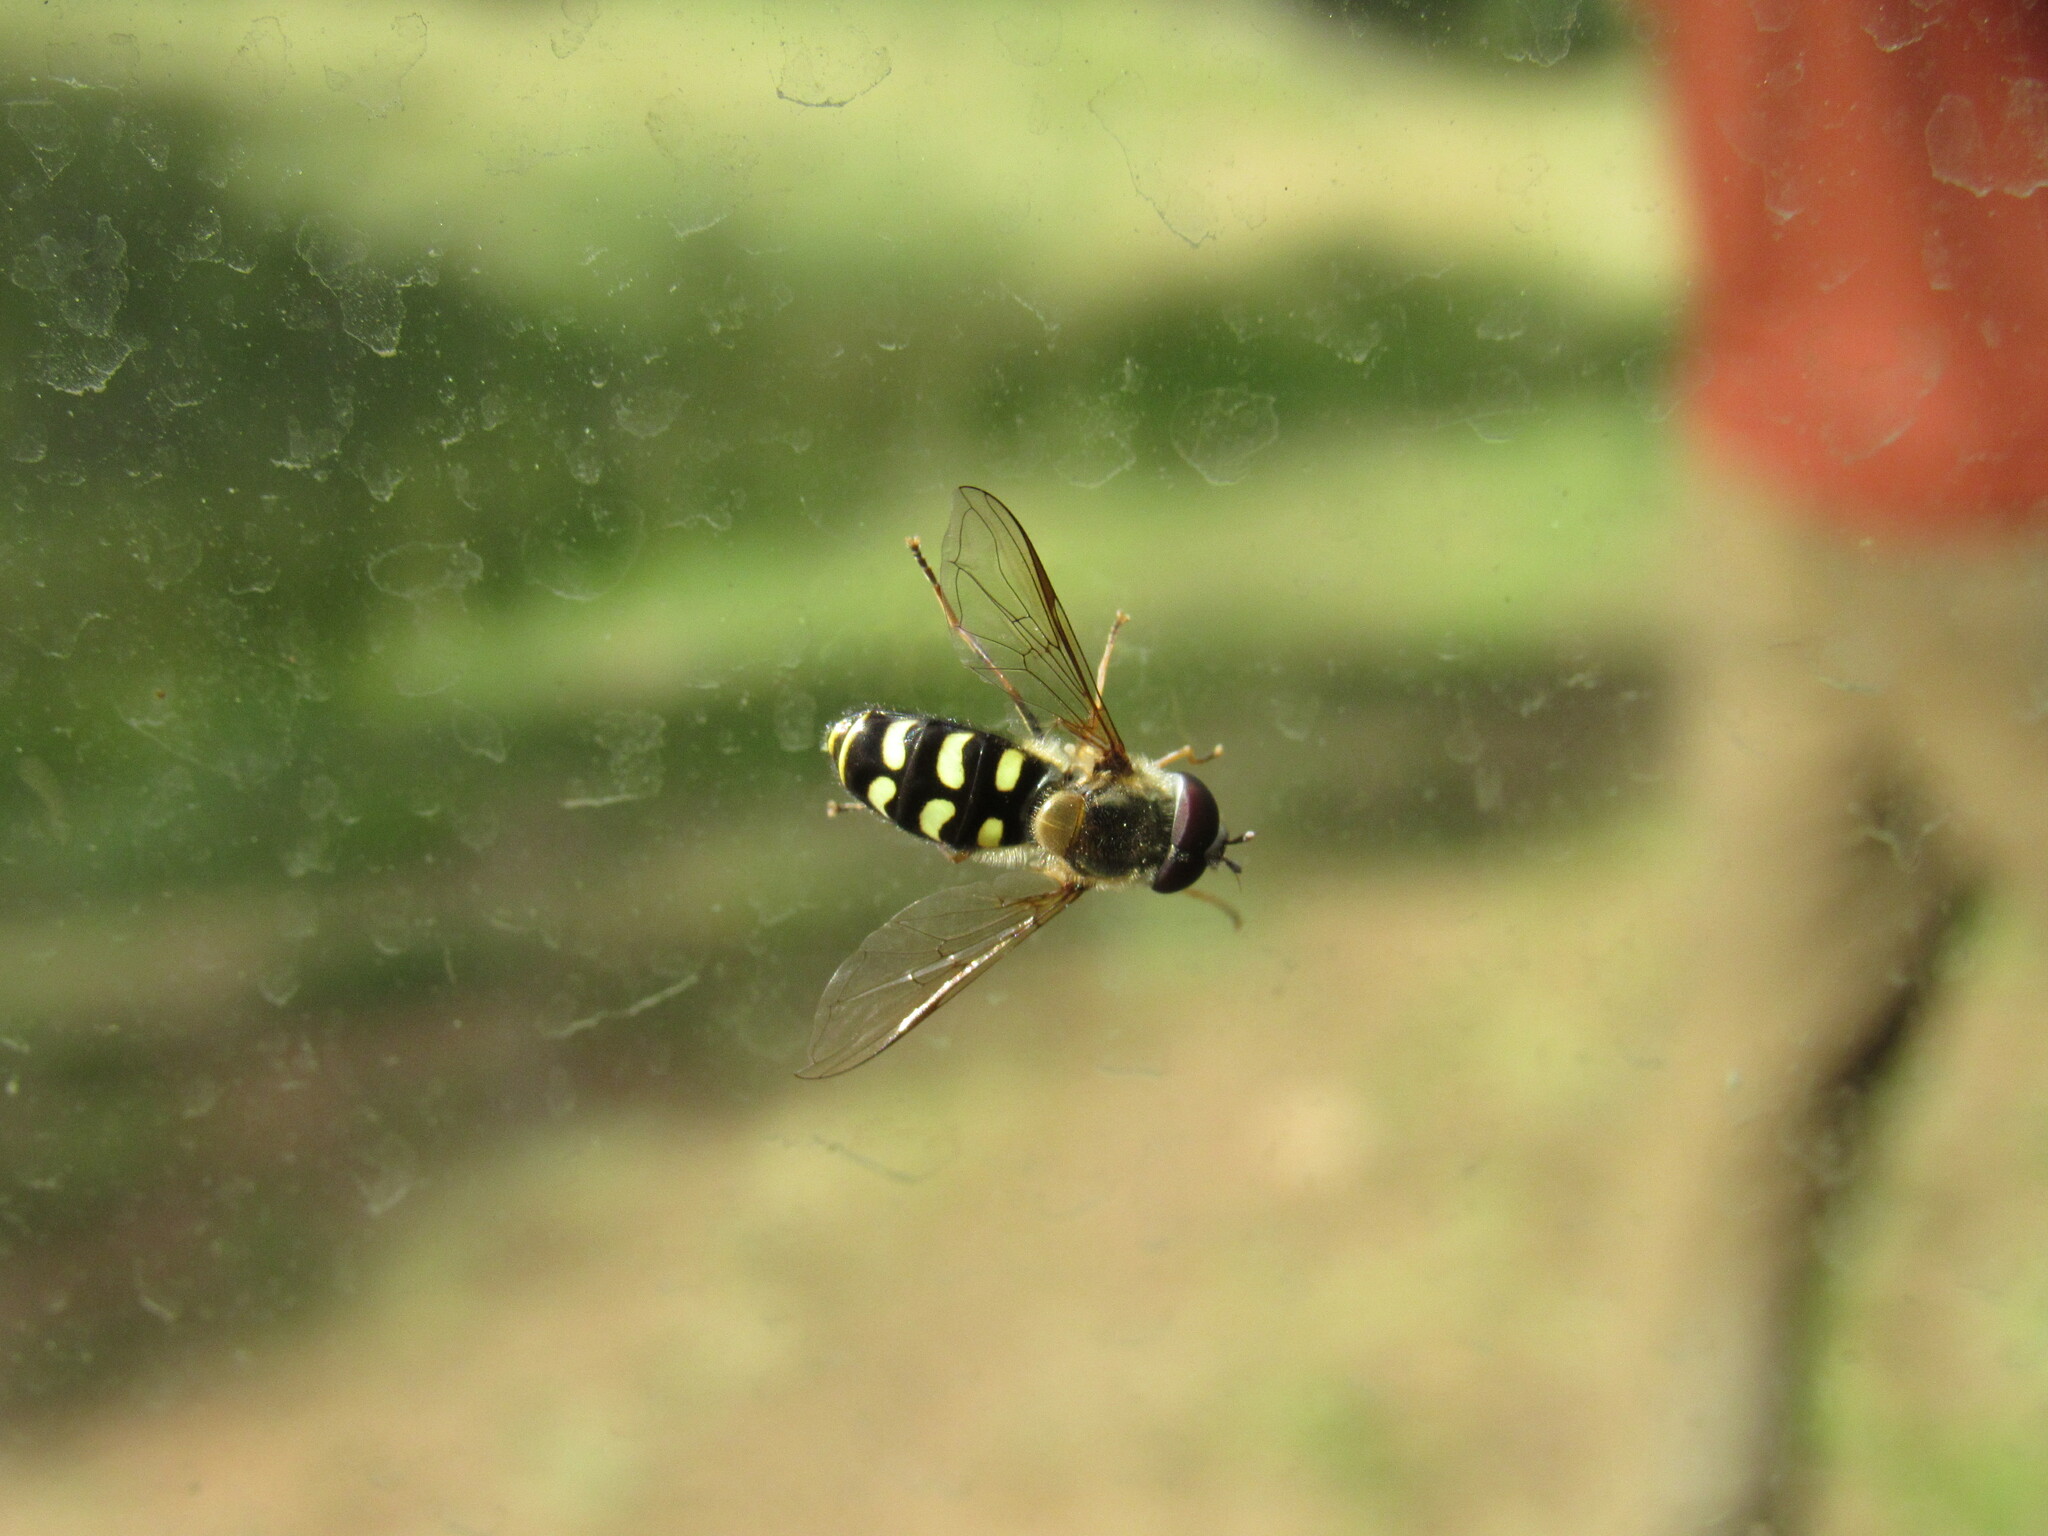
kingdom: Animalia
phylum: Arthropoda
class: Insecta
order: Diptera
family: Syrphidae
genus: Lapposyrphus
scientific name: Lapposyrphus lapponicus
